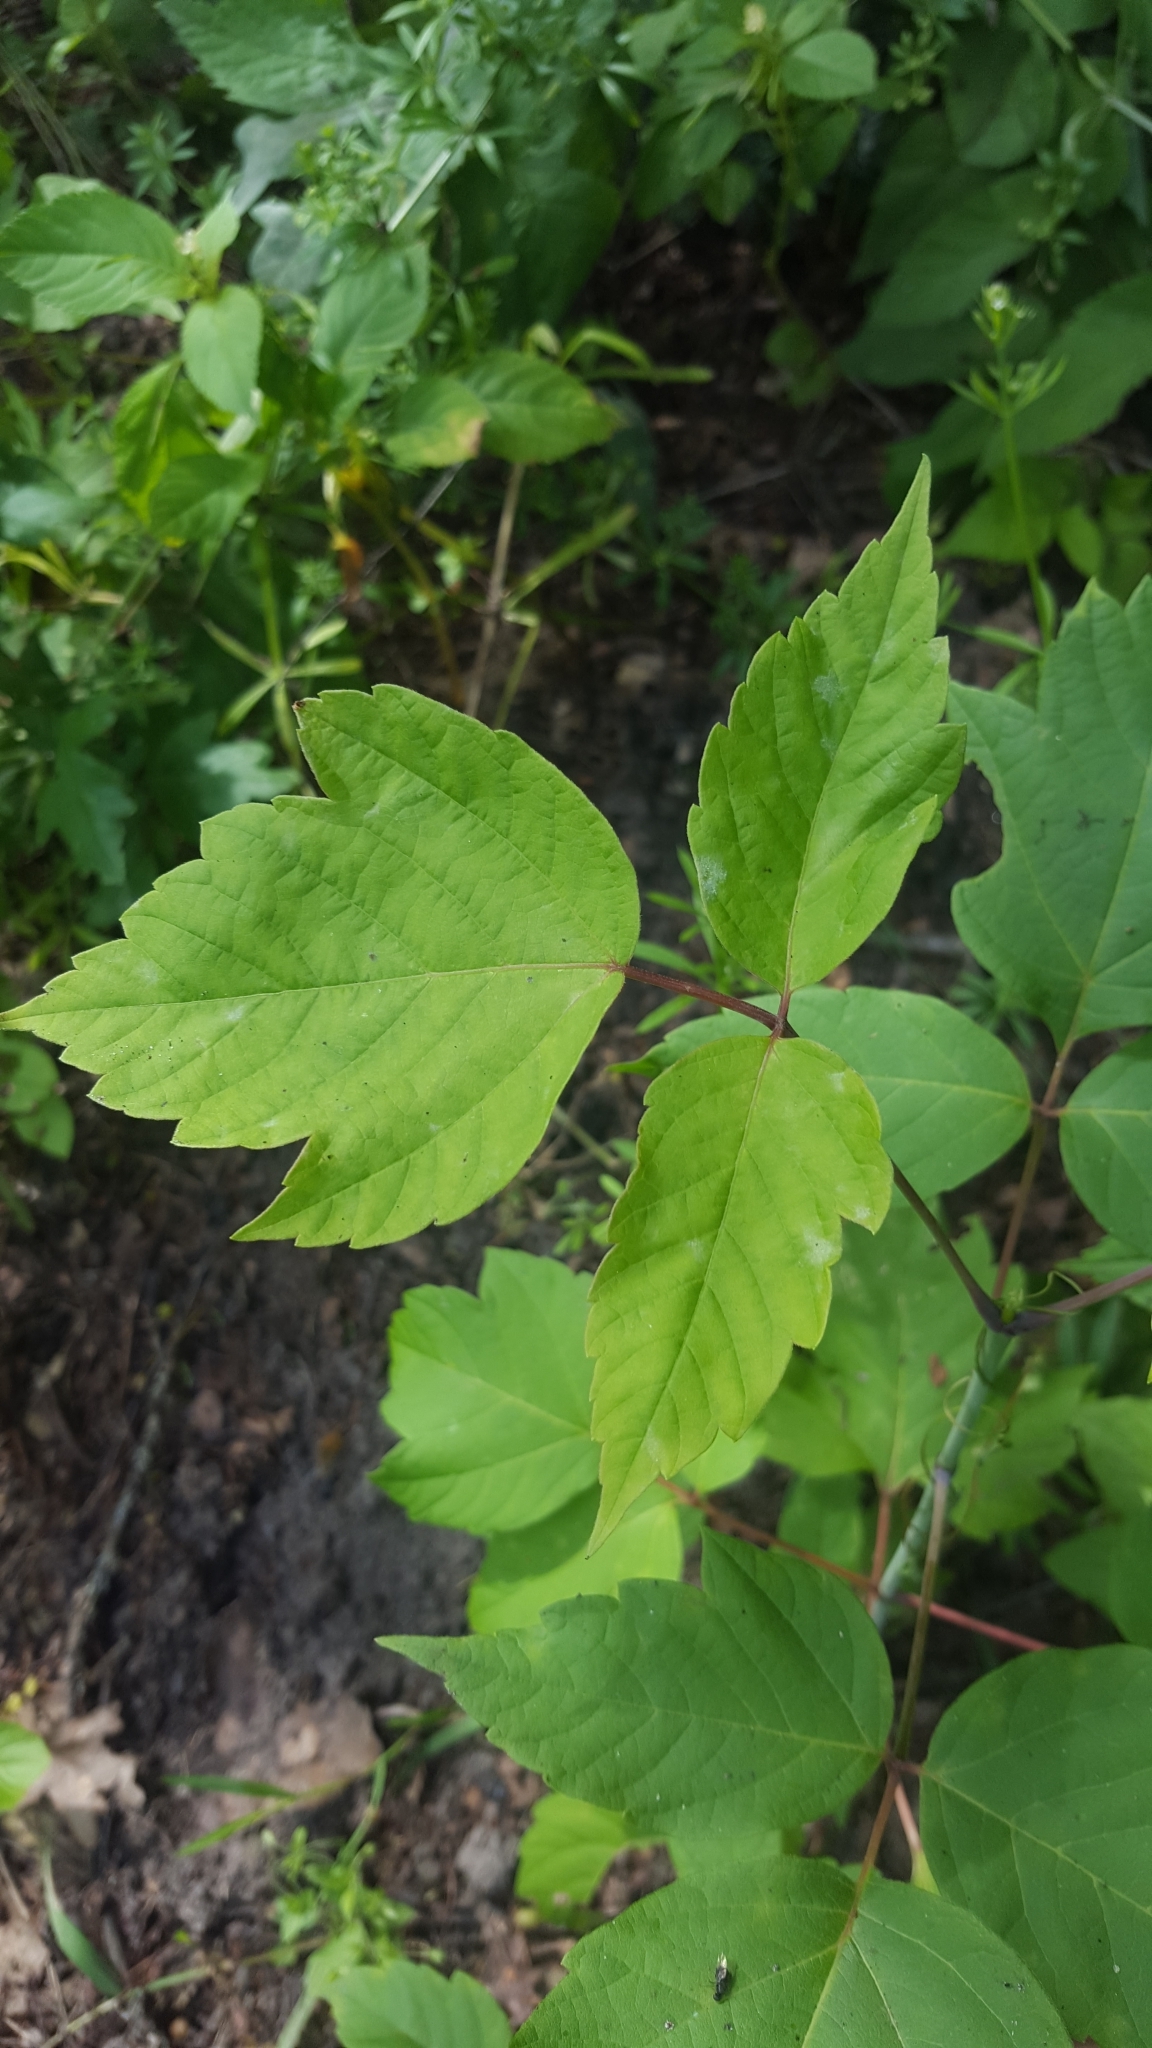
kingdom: Plantae
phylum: Tracheophyta
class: Magnoliopsida
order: Sapindales
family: Sapindaceae
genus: Acer
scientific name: Acer negundo
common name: Ashleaf maple
